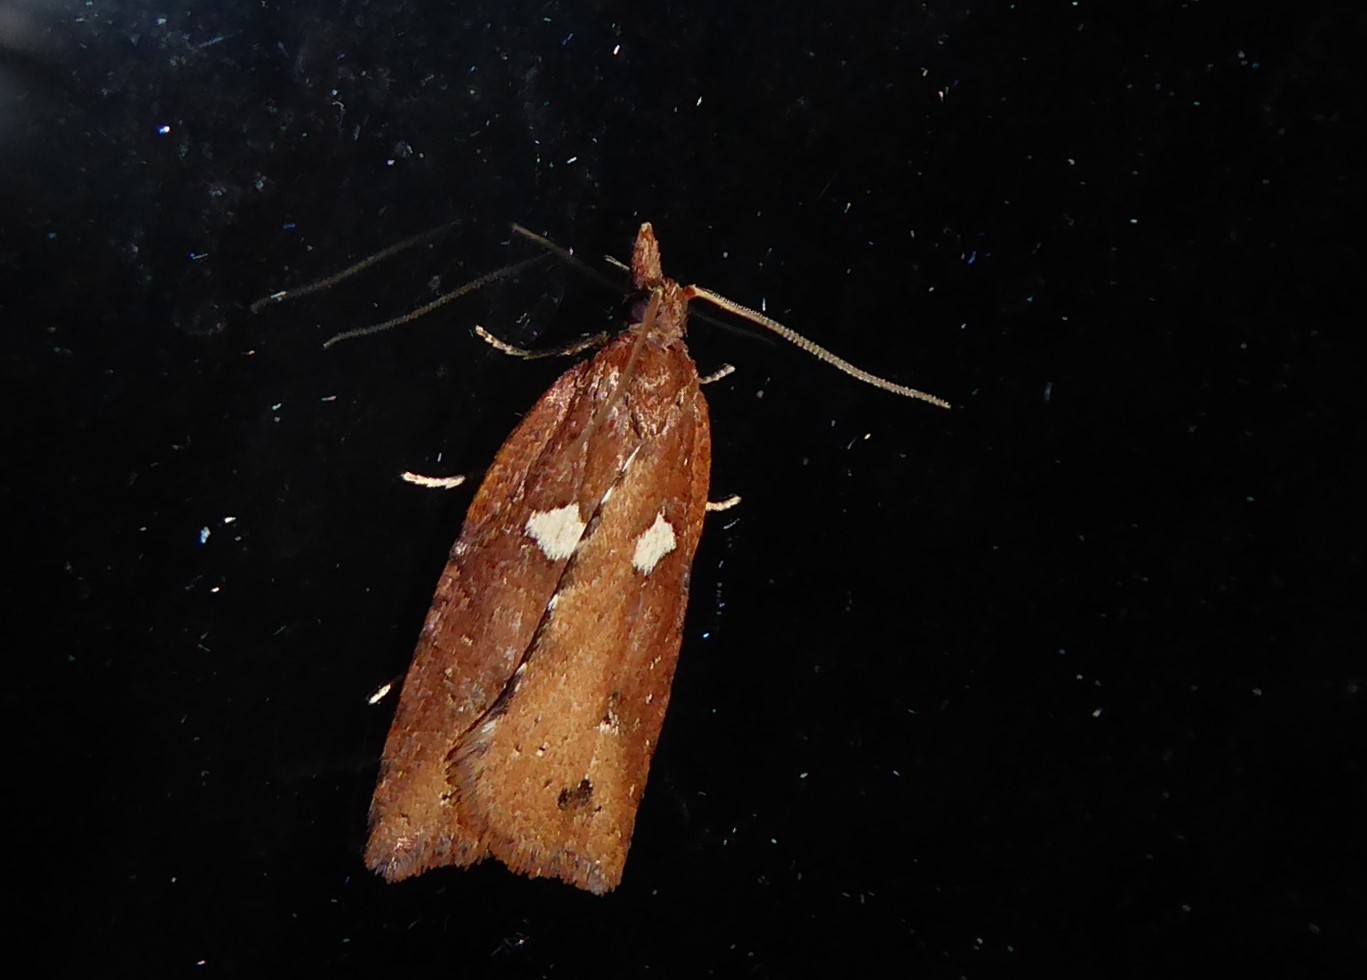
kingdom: Animalia
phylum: Arthropoda
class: Insecta
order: Lepidoptera
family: Tortricidae
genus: Planotortrix
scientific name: Planotortrix notophaea
